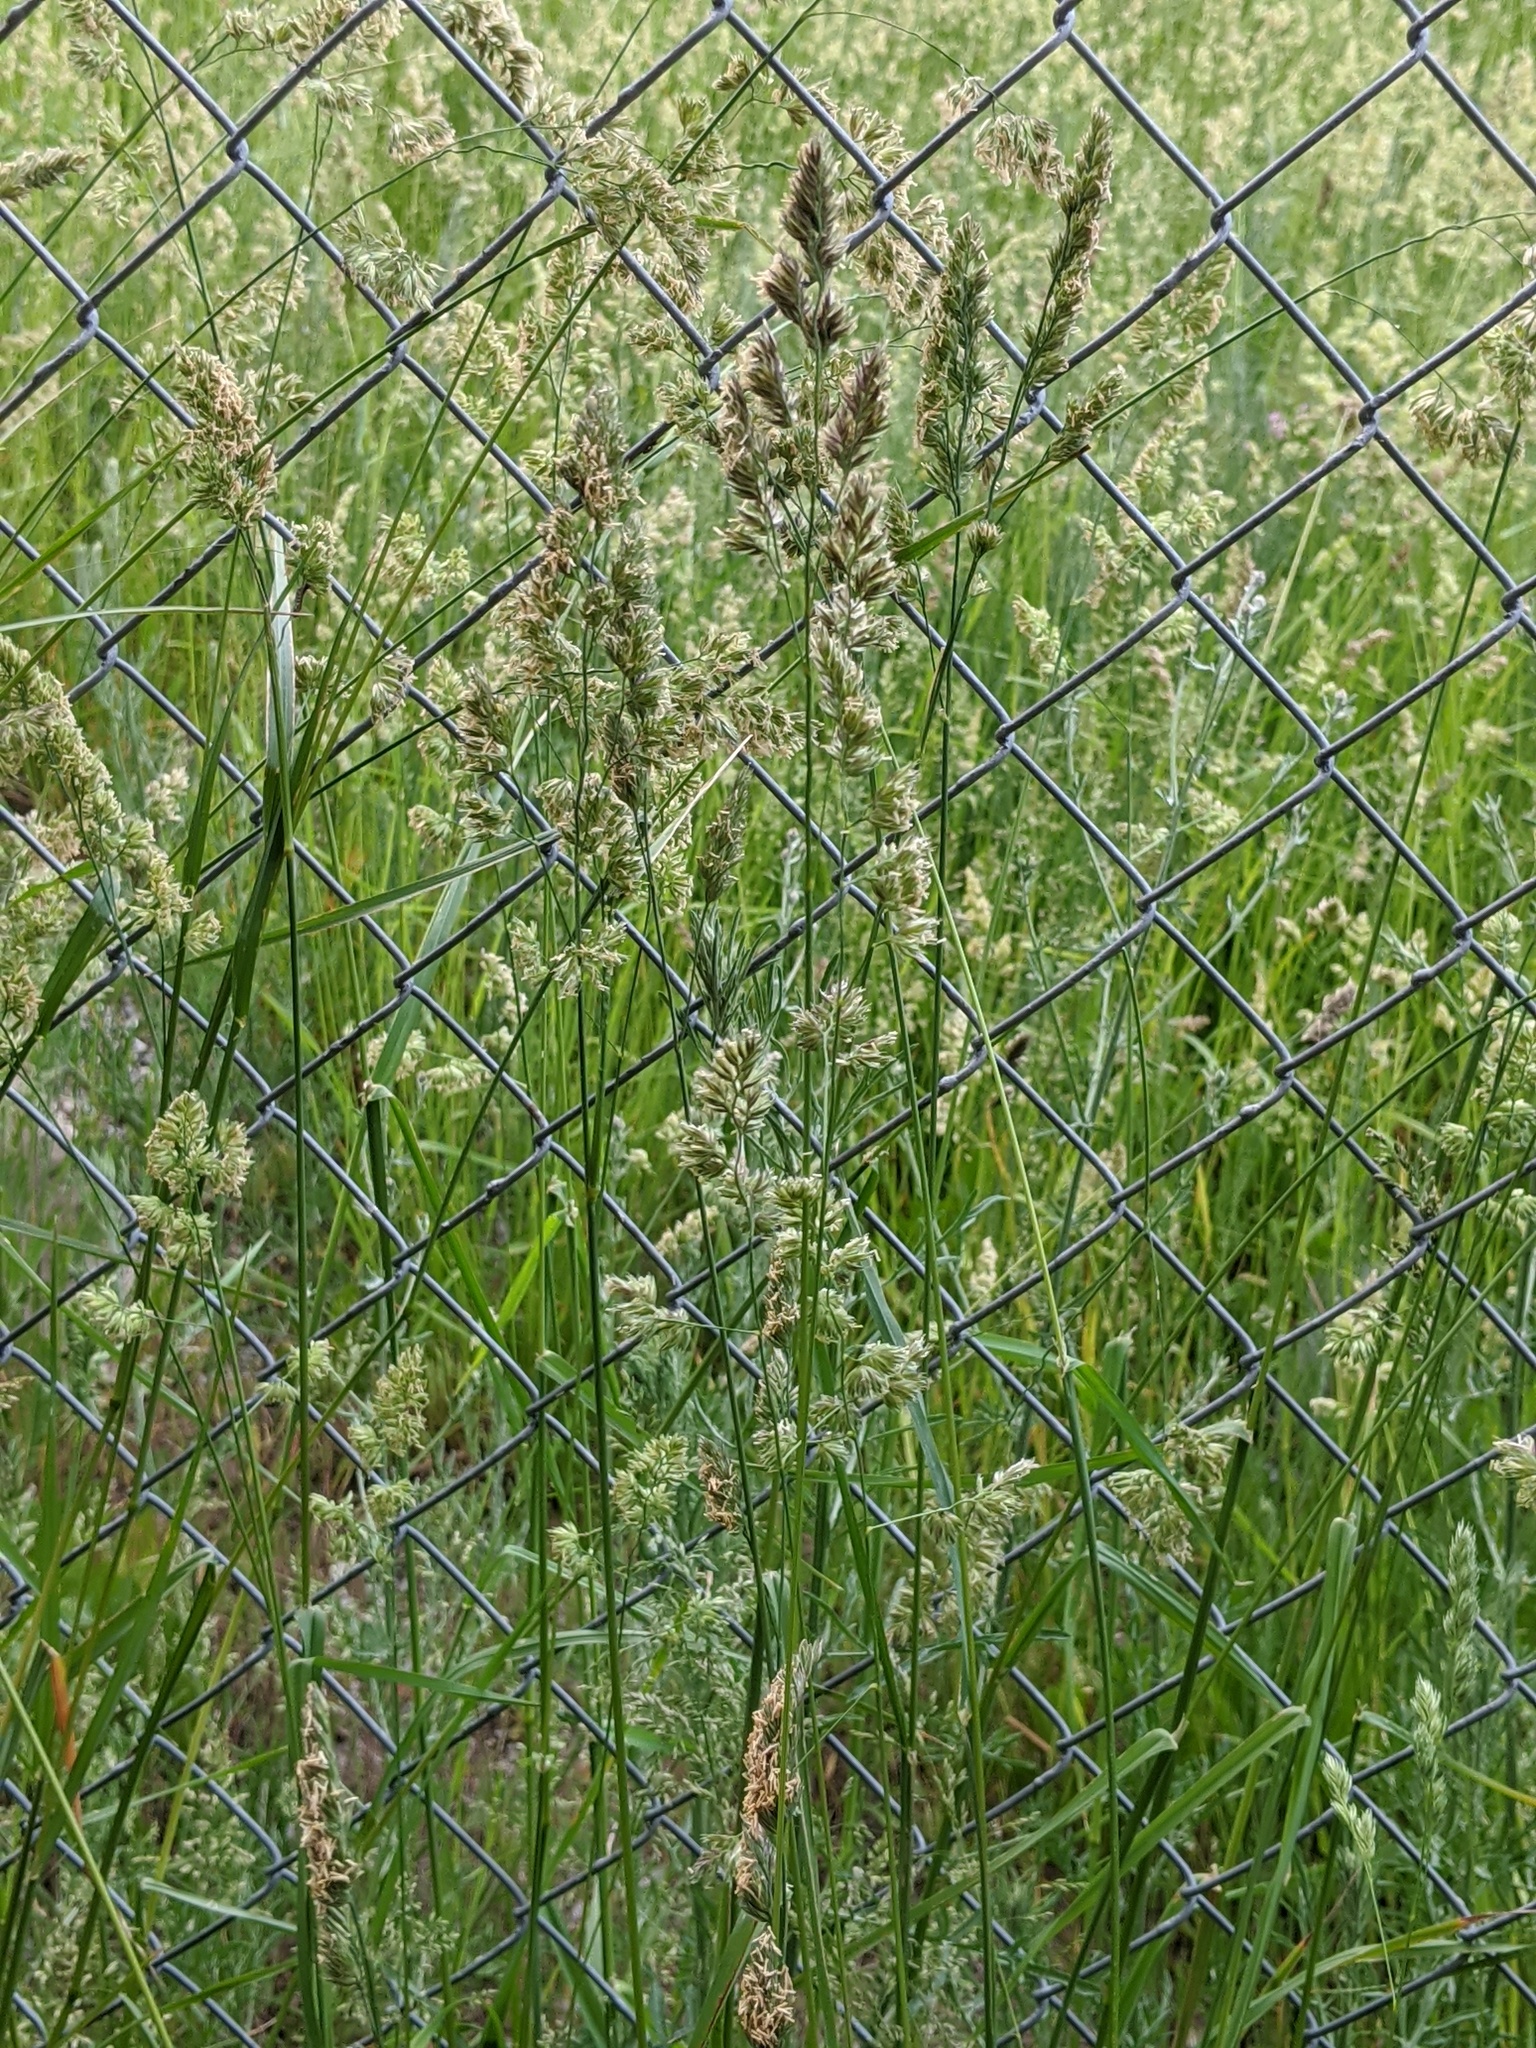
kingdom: Plantae
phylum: Tracheophyta
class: Liliopsida
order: Poales
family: Poaceae
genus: Dactylis
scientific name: Dactylis glomerata
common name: Orchardgrass
